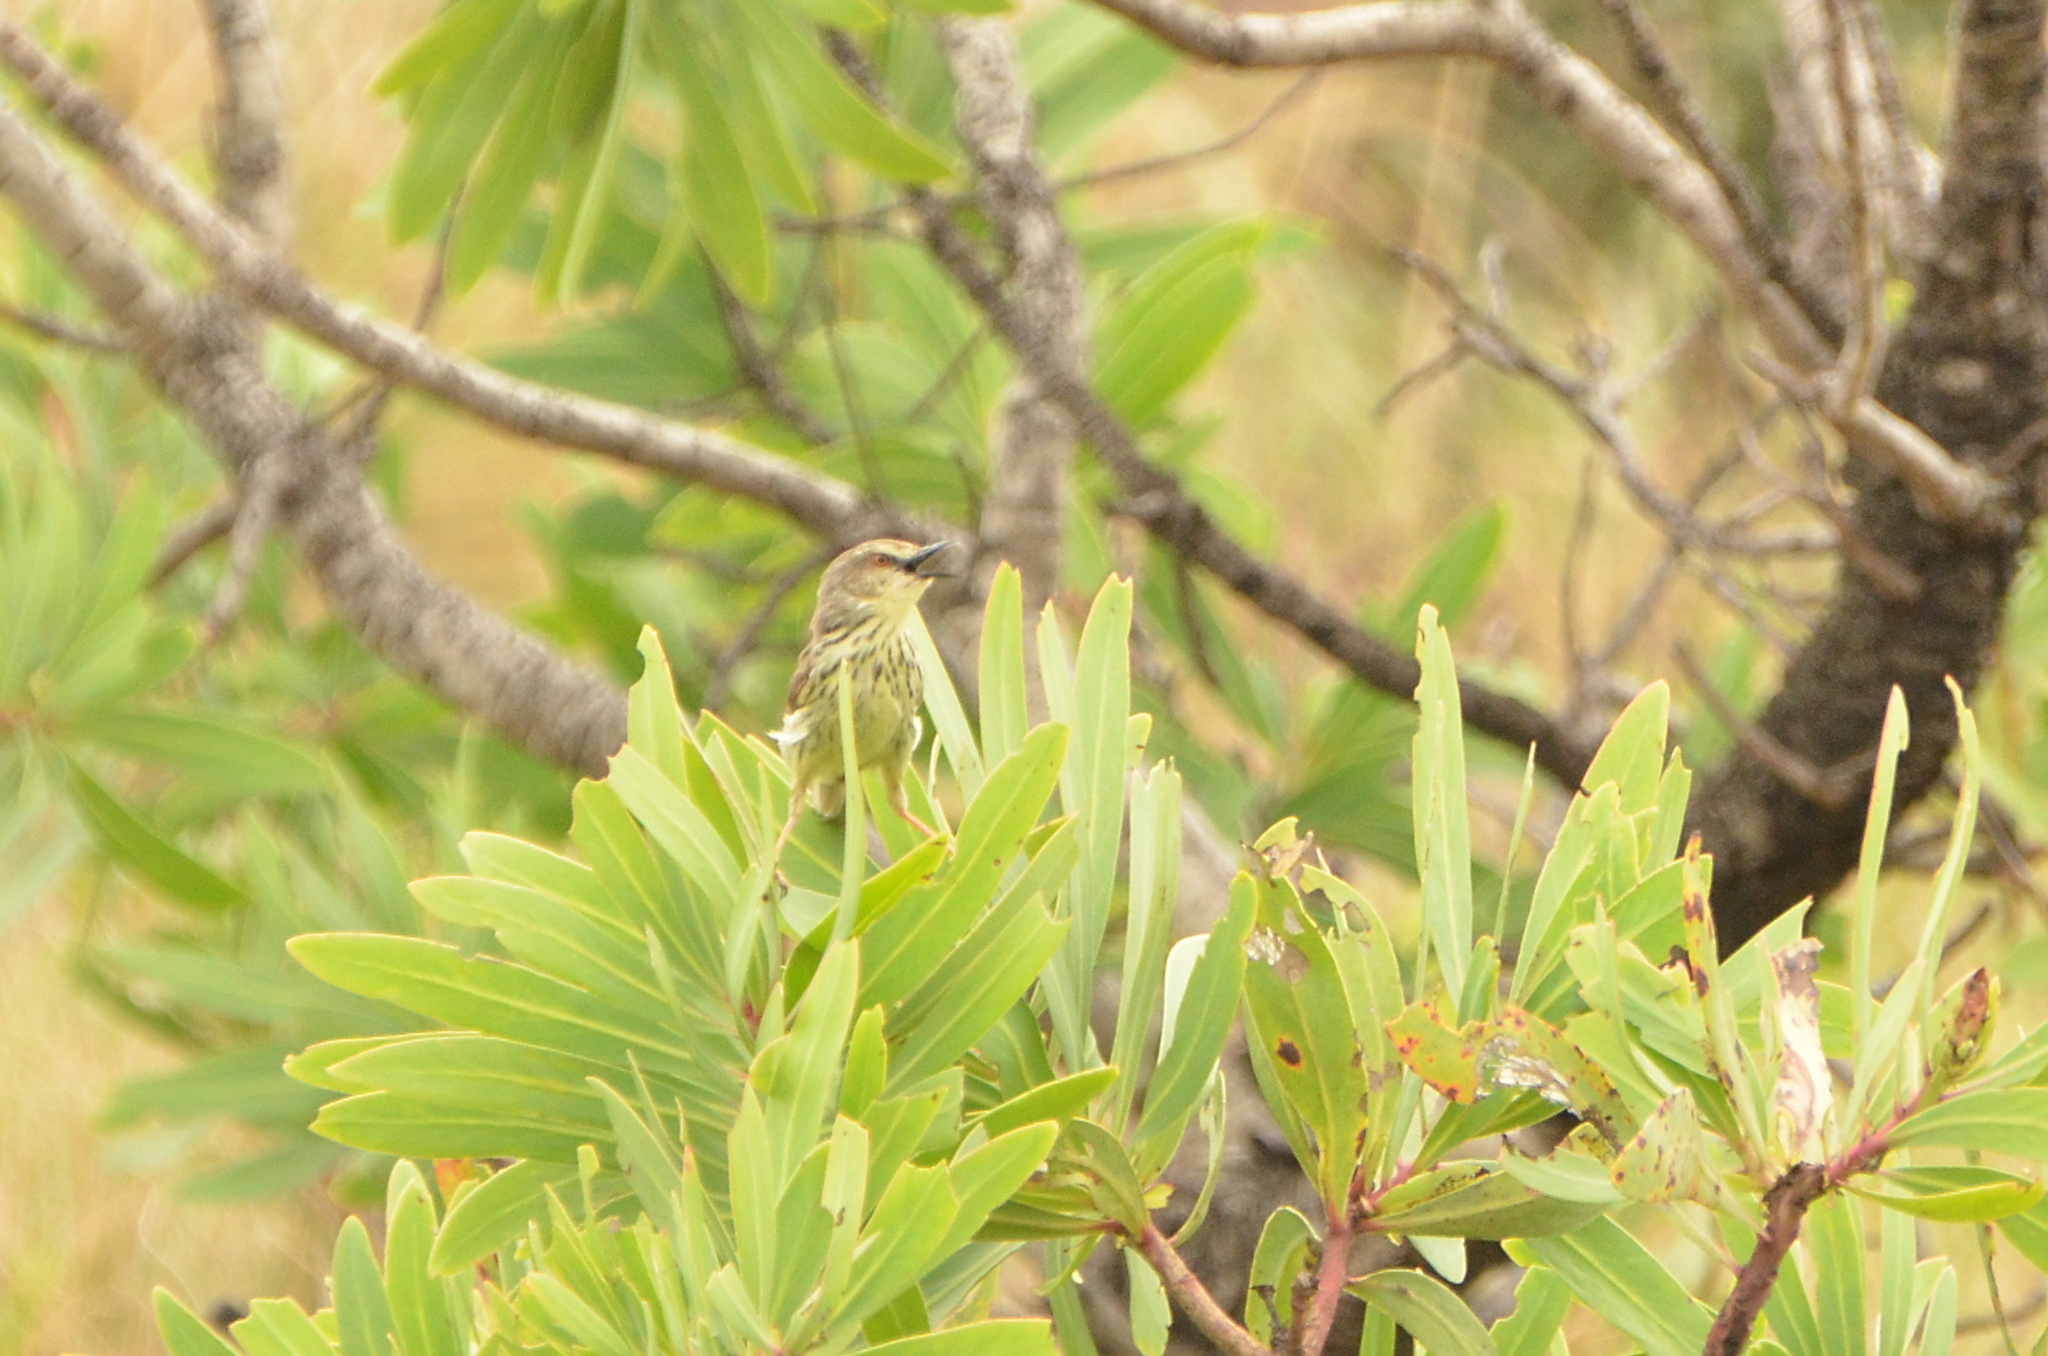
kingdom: Animalia
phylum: Chordata
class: Aves
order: Passeriformes
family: Cisticolidae
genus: Prinia
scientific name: Prinia hypoxantha
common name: Drakensberg prinia
